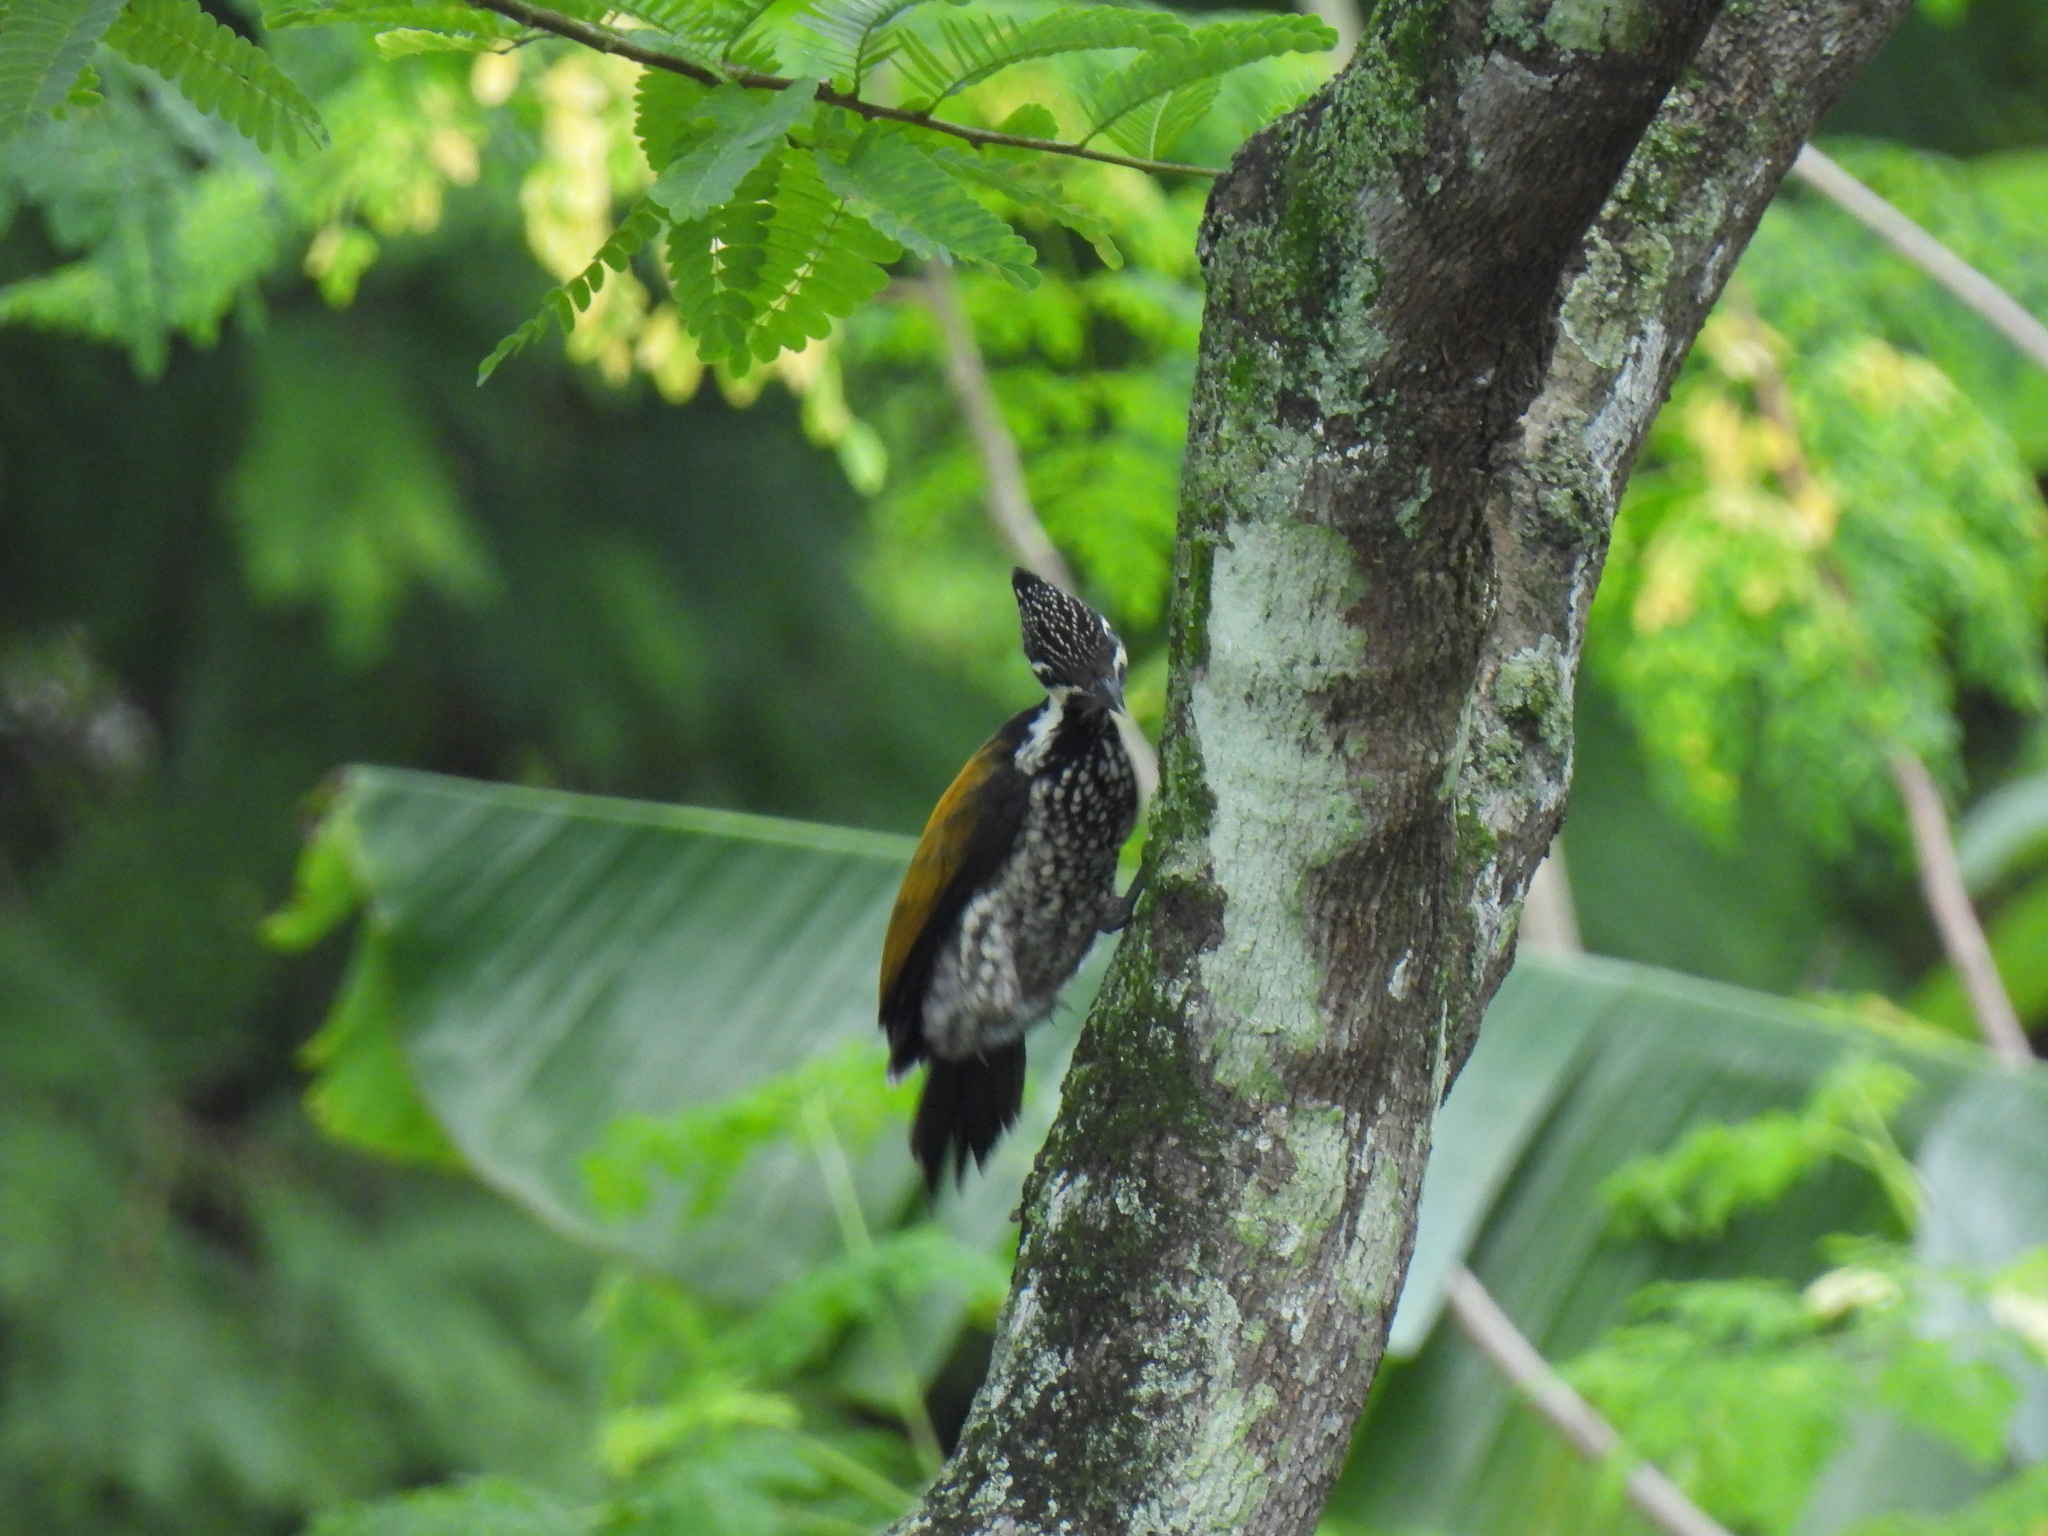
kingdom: Animalia
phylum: Chordata
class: Aves
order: Piciformes
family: Picidae
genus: Dinopium
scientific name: Dinopium javanense
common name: Common flameback
